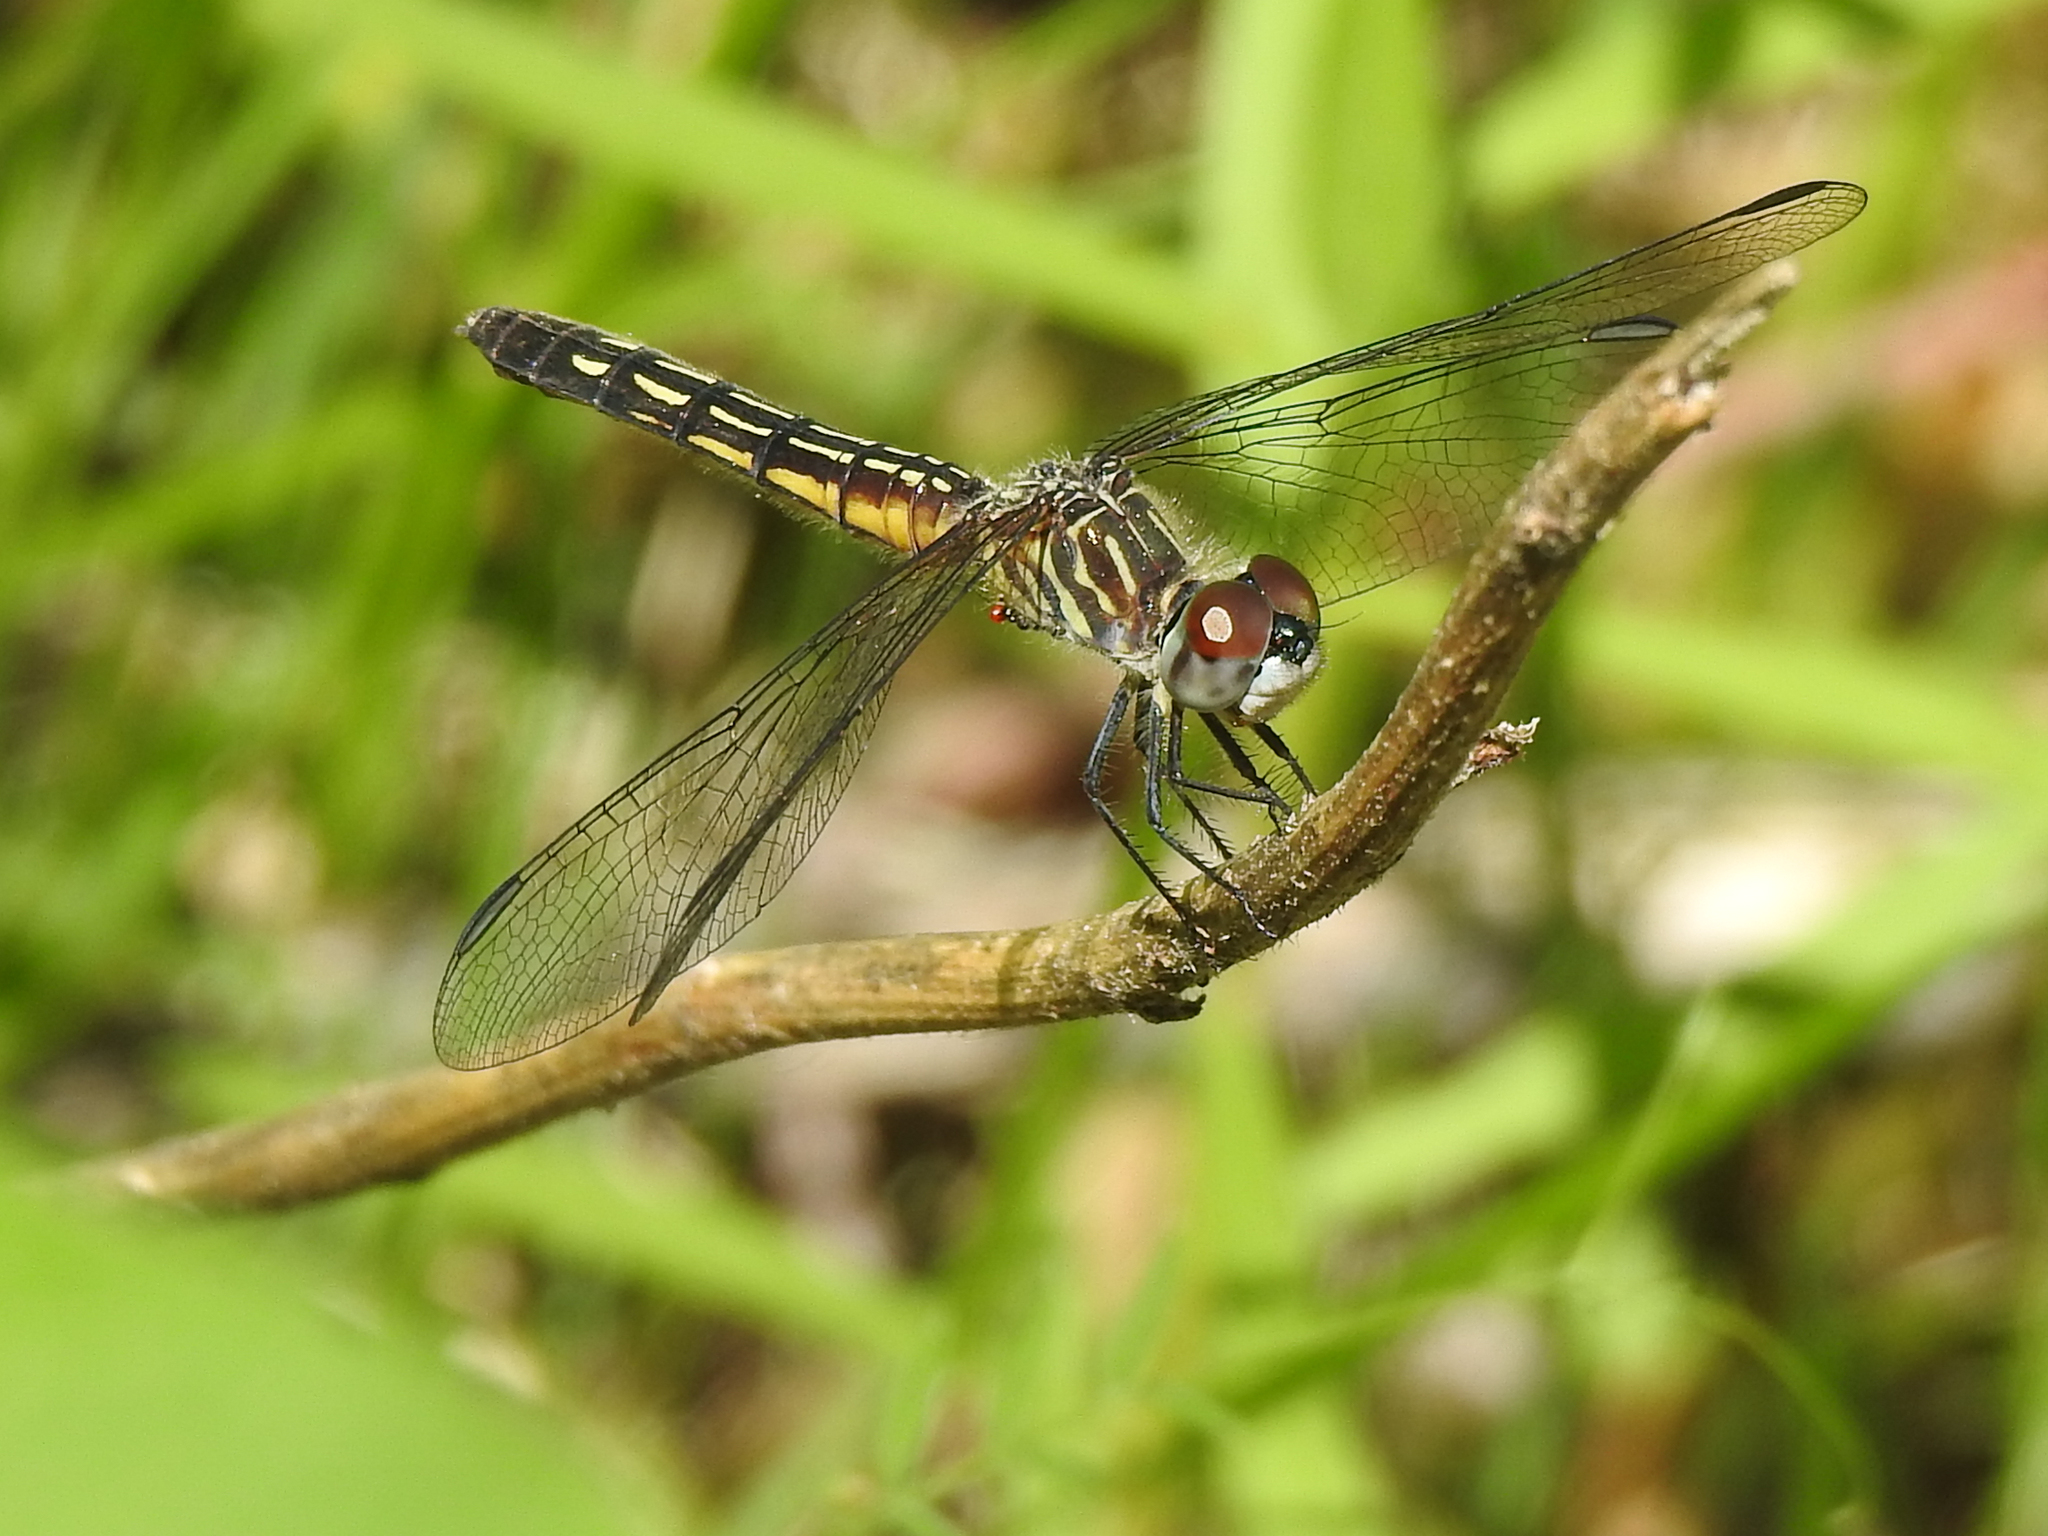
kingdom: Animalia
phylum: Arthropoda
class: Insecta
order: Odonata
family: Libellulidae
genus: Pachydiplax
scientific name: Pachydiplax longipennis
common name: Blue dasher
